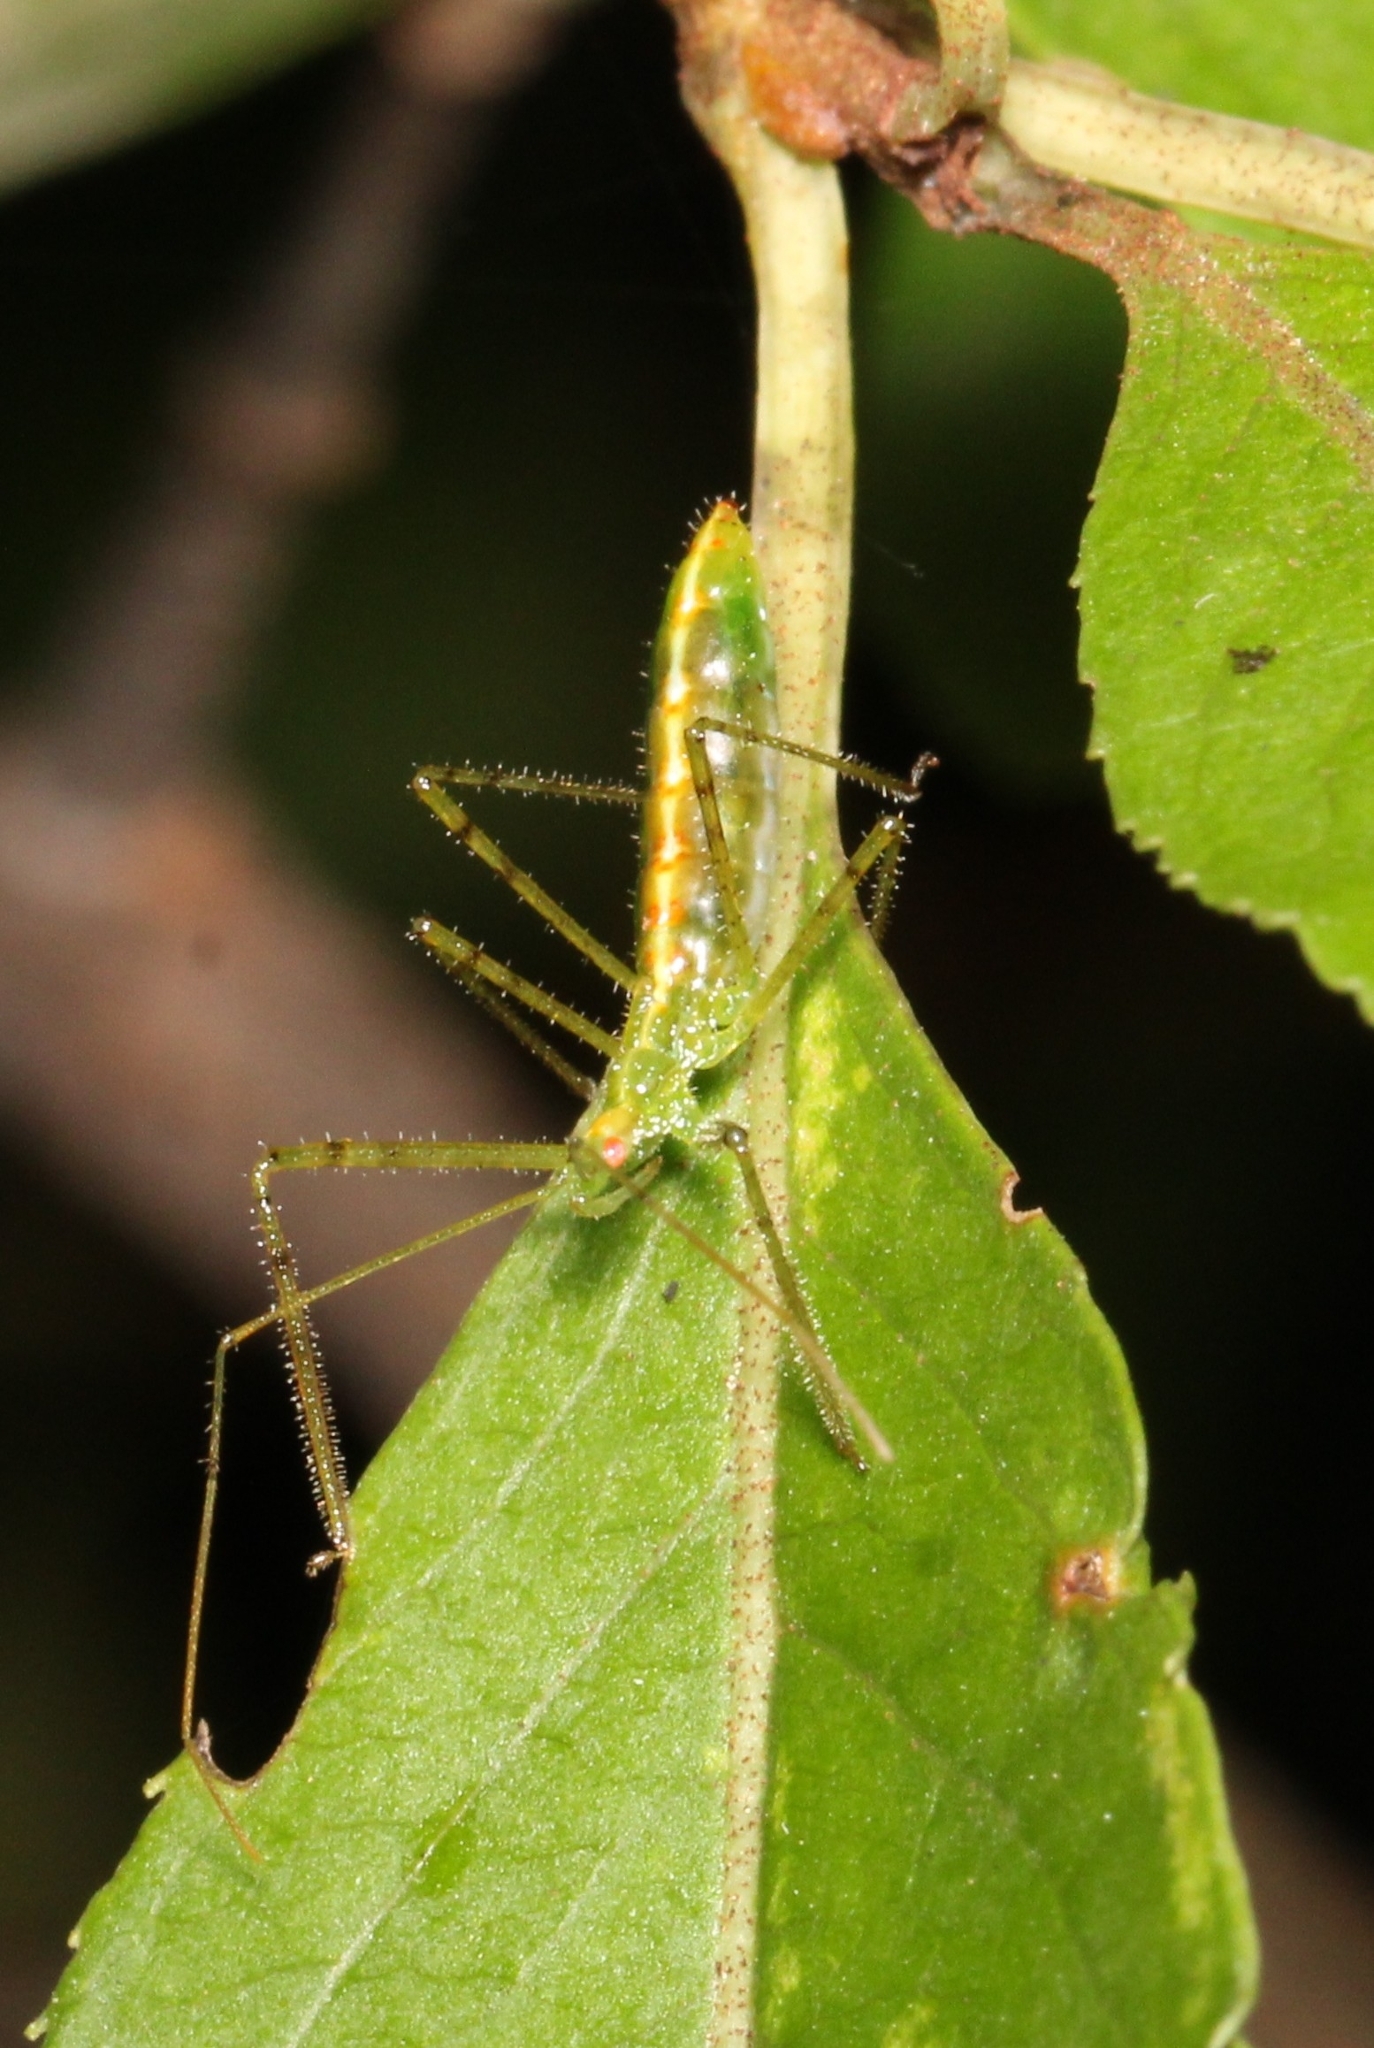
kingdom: Animalia
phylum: Arthropoda
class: Insecta
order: Hemiptera
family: Reduviidae
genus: Zelus
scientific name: Zelus luridus
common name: Pale green assassin bug
